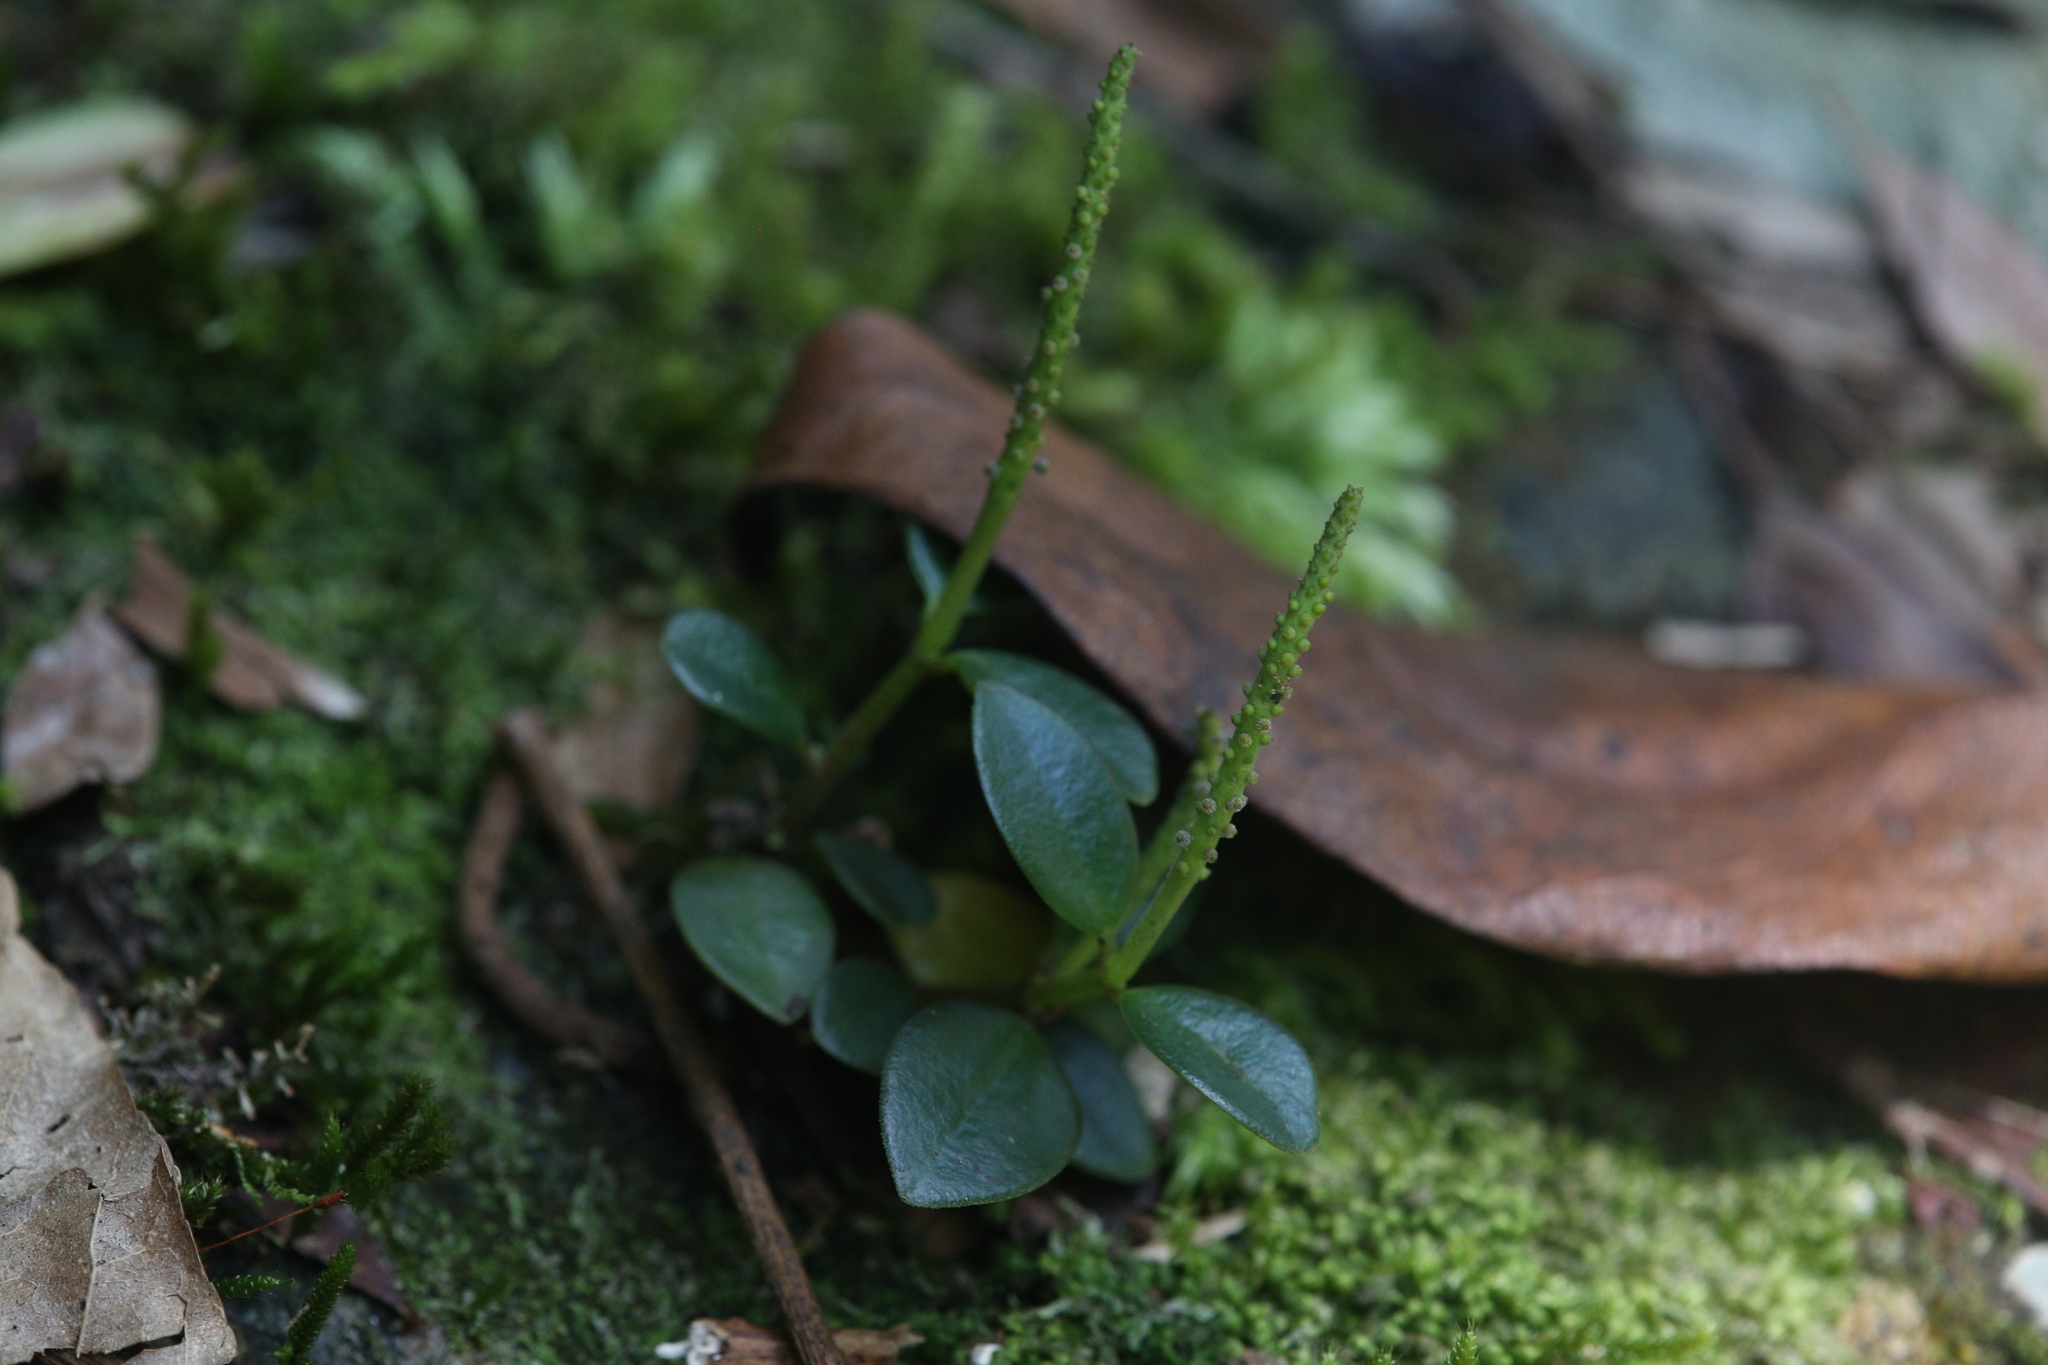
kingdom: Plantae
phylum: Tracheophyta
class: Magnoliopsida
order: Piperales
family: Piperaceae
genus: Peperomia
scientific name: Peperomia bellendenkerensis
